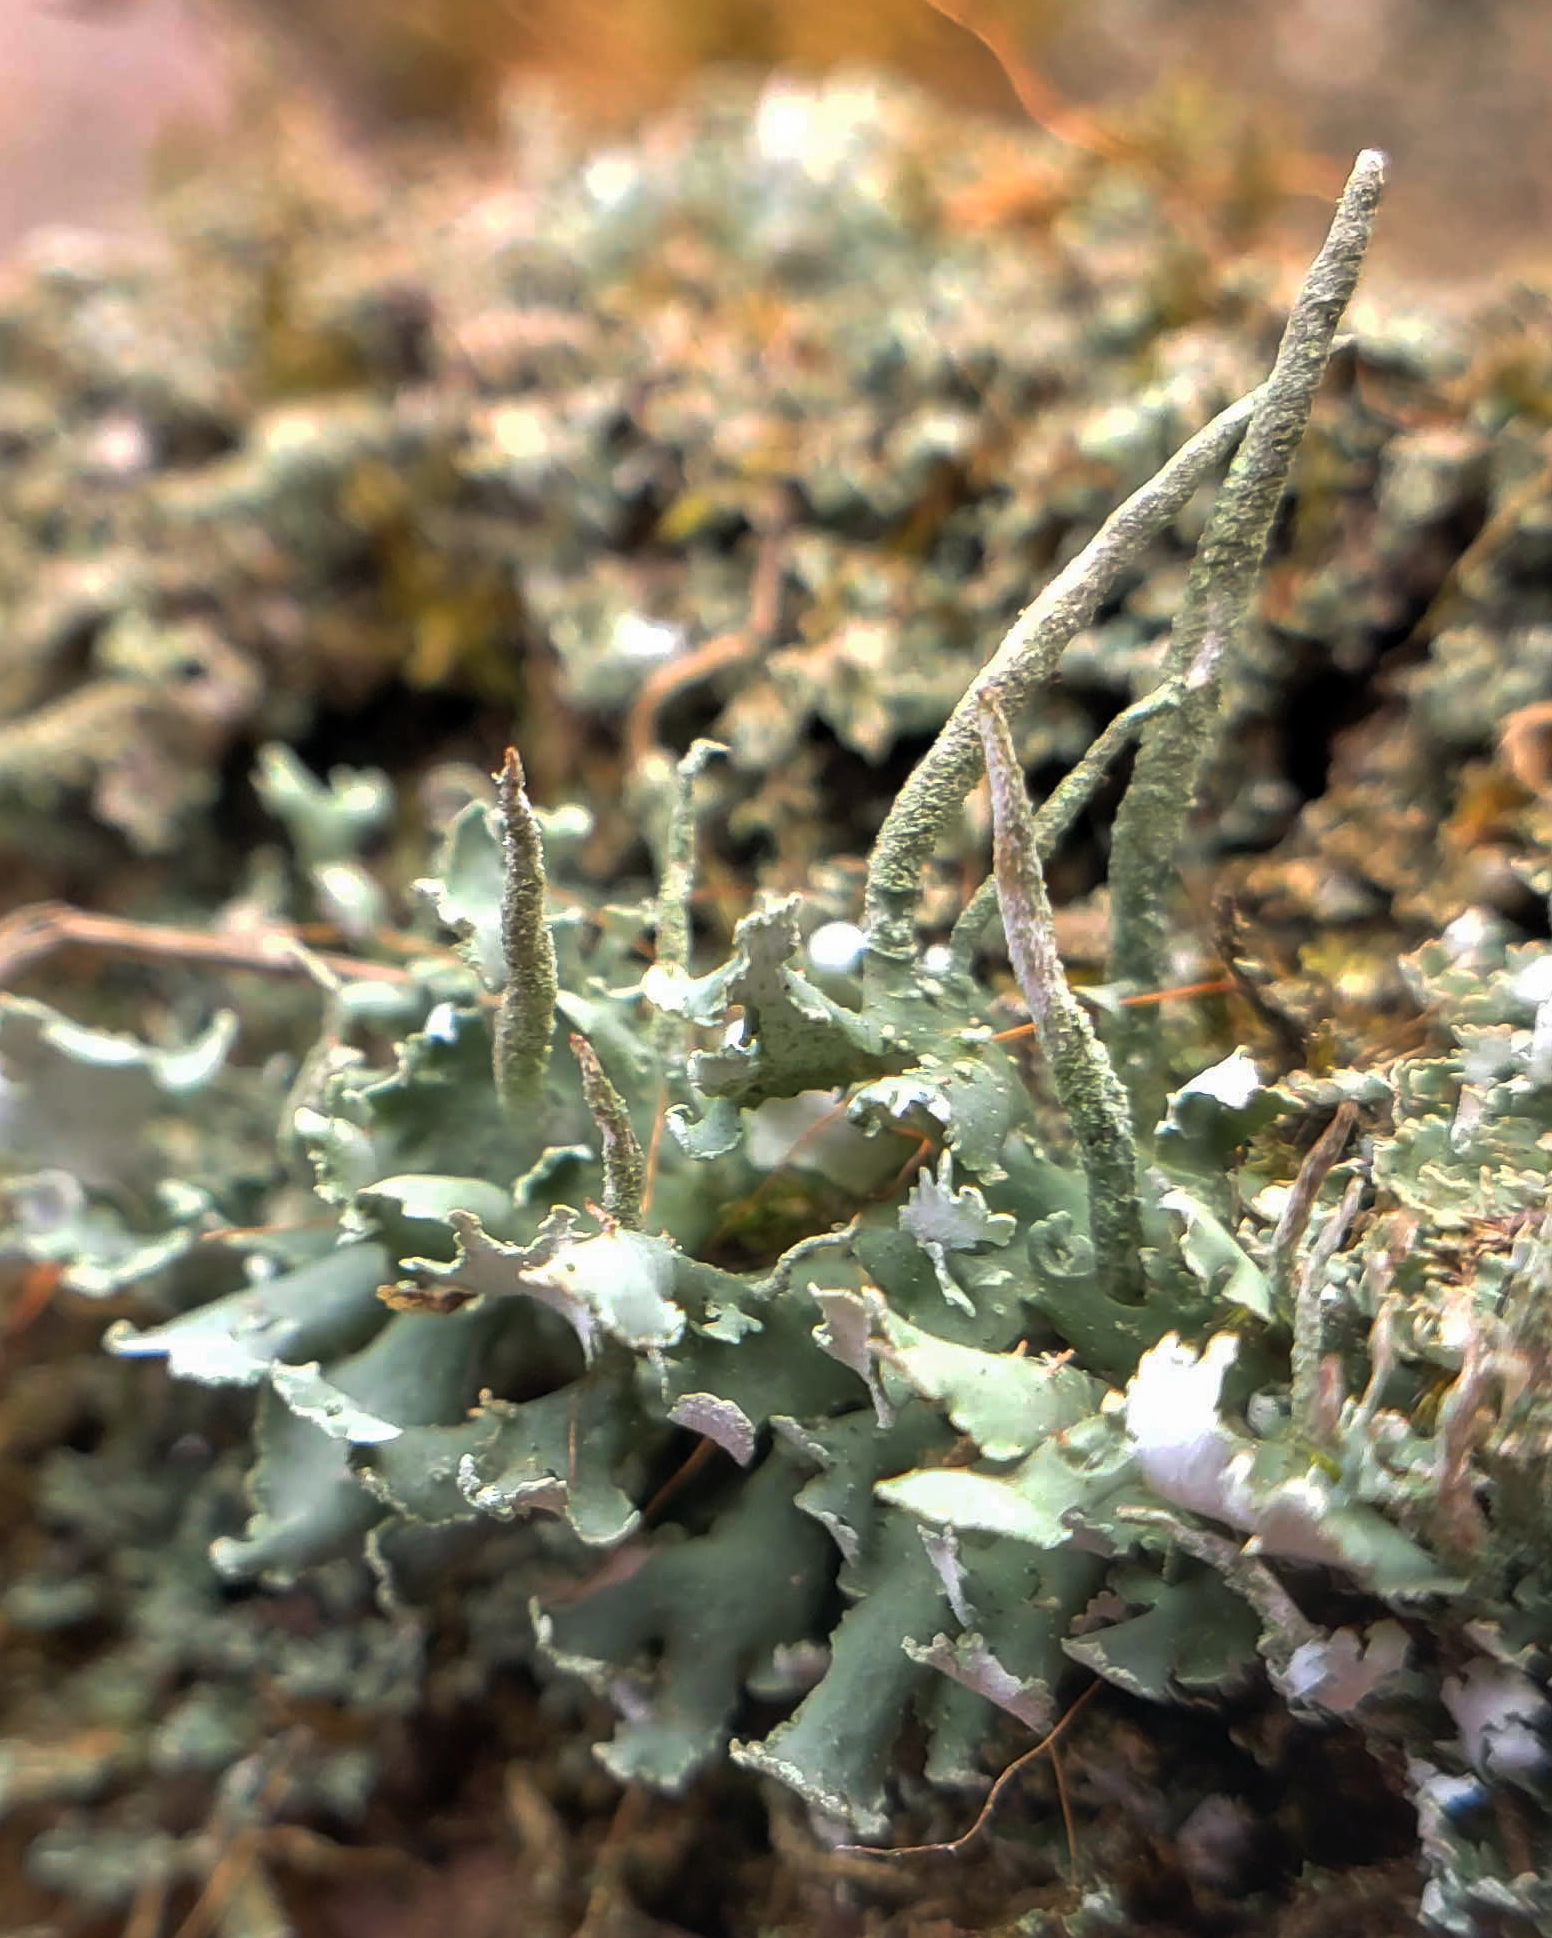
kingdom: Fungi
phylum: Ascomycota
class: Lecanoromycetes
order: Lecanorales
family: Cladoniaceae
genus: Cladonia
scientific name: Cladonia ochrochlora
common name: Smooth-footed powderhorn
